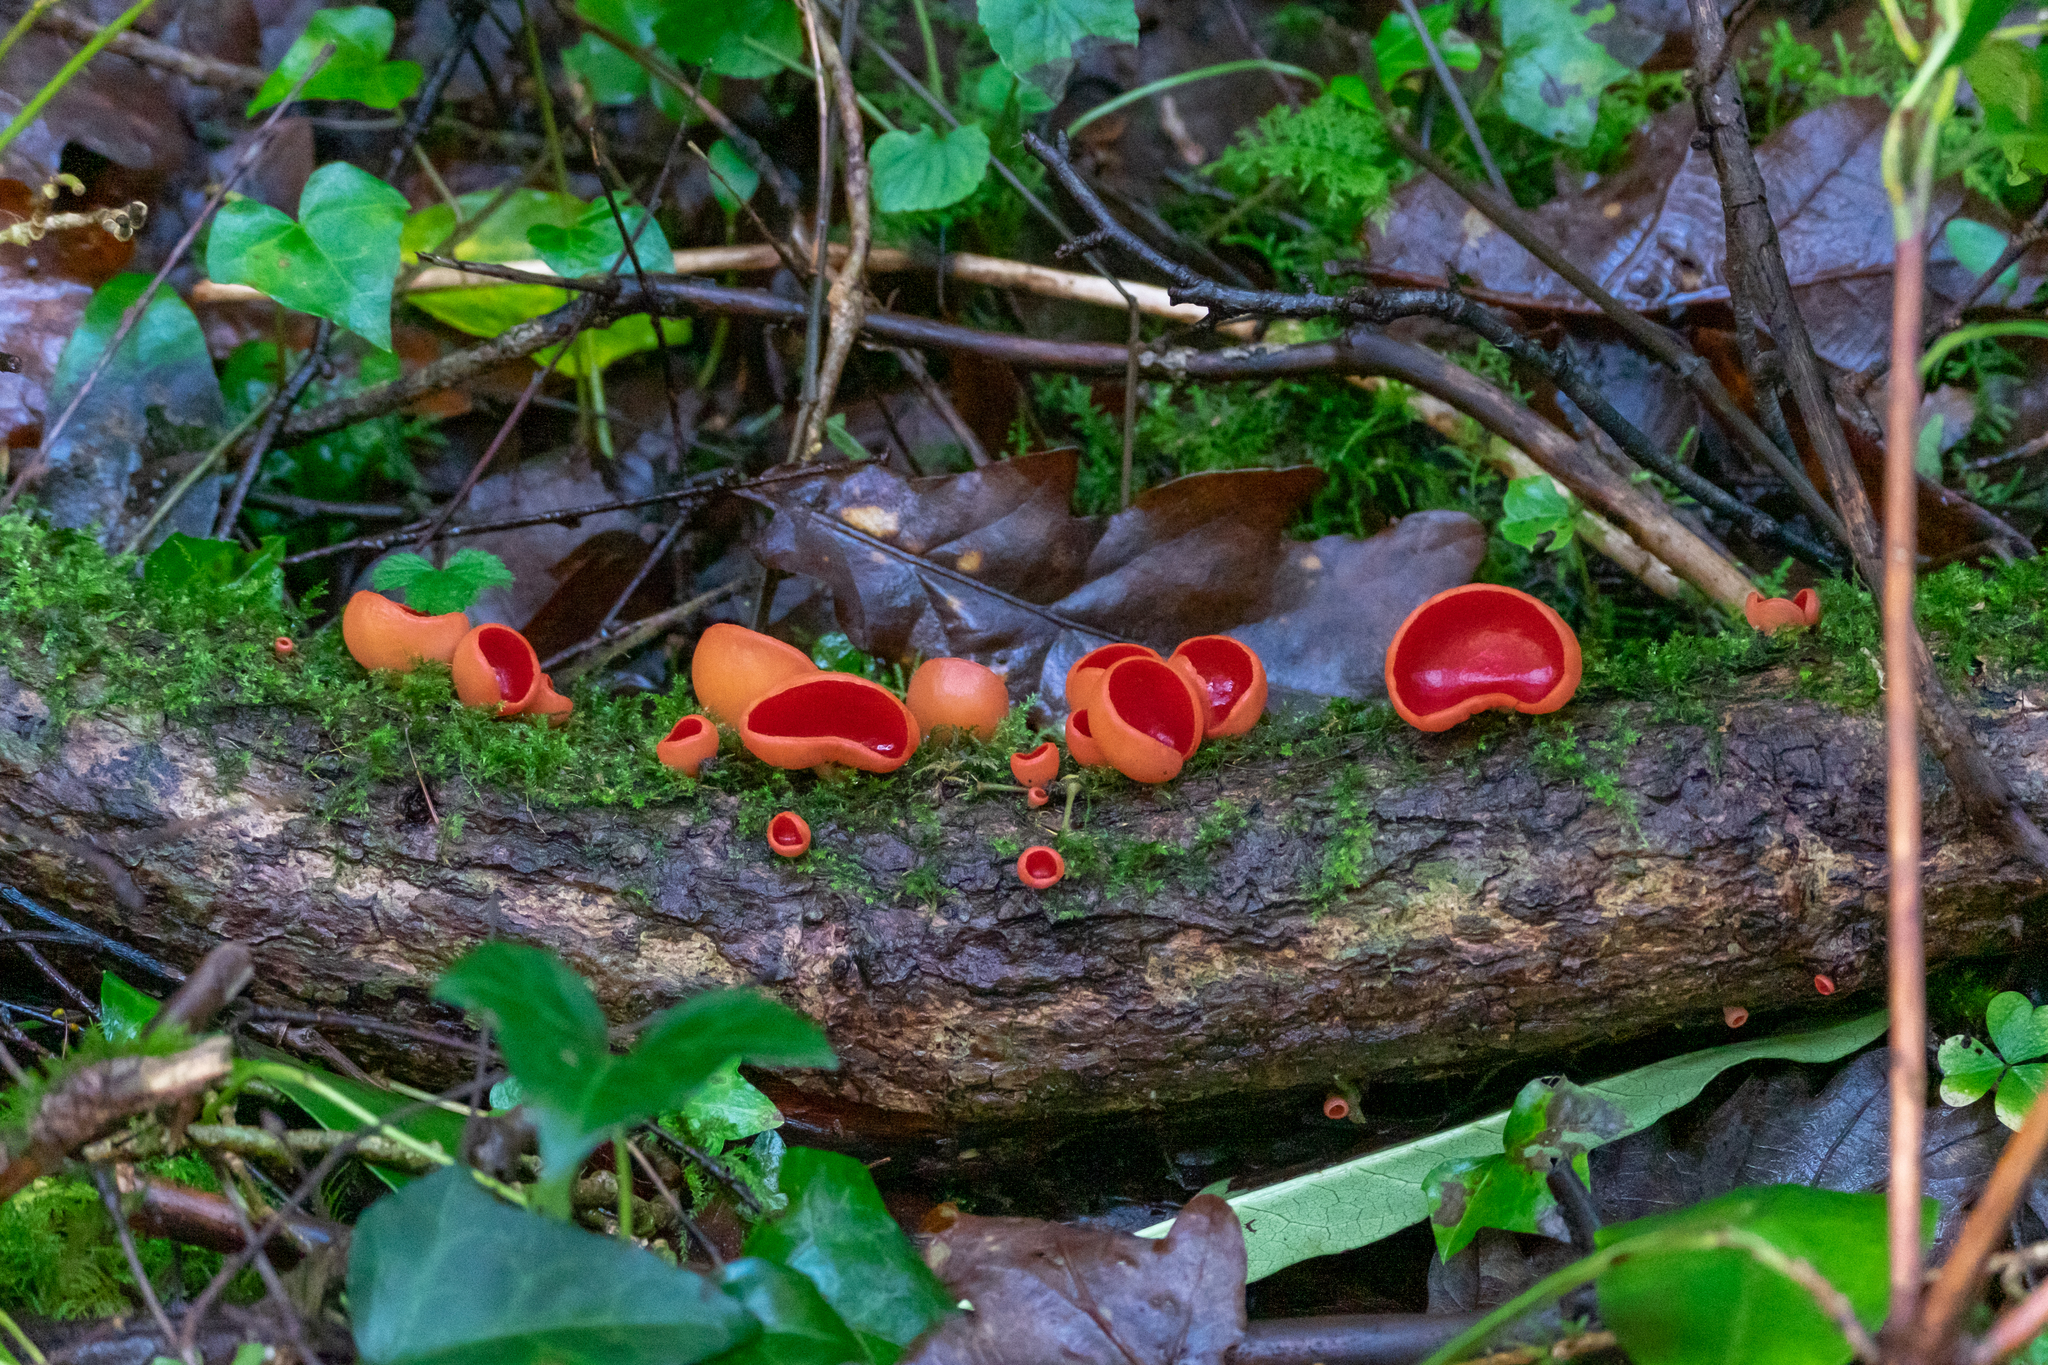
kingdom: Fungi
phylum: Ascomycota
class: Pezizomycetes
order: Pezizales
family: Sarcoscyphaceae
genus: Sarcoscypha
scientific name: Sarcoscypha
